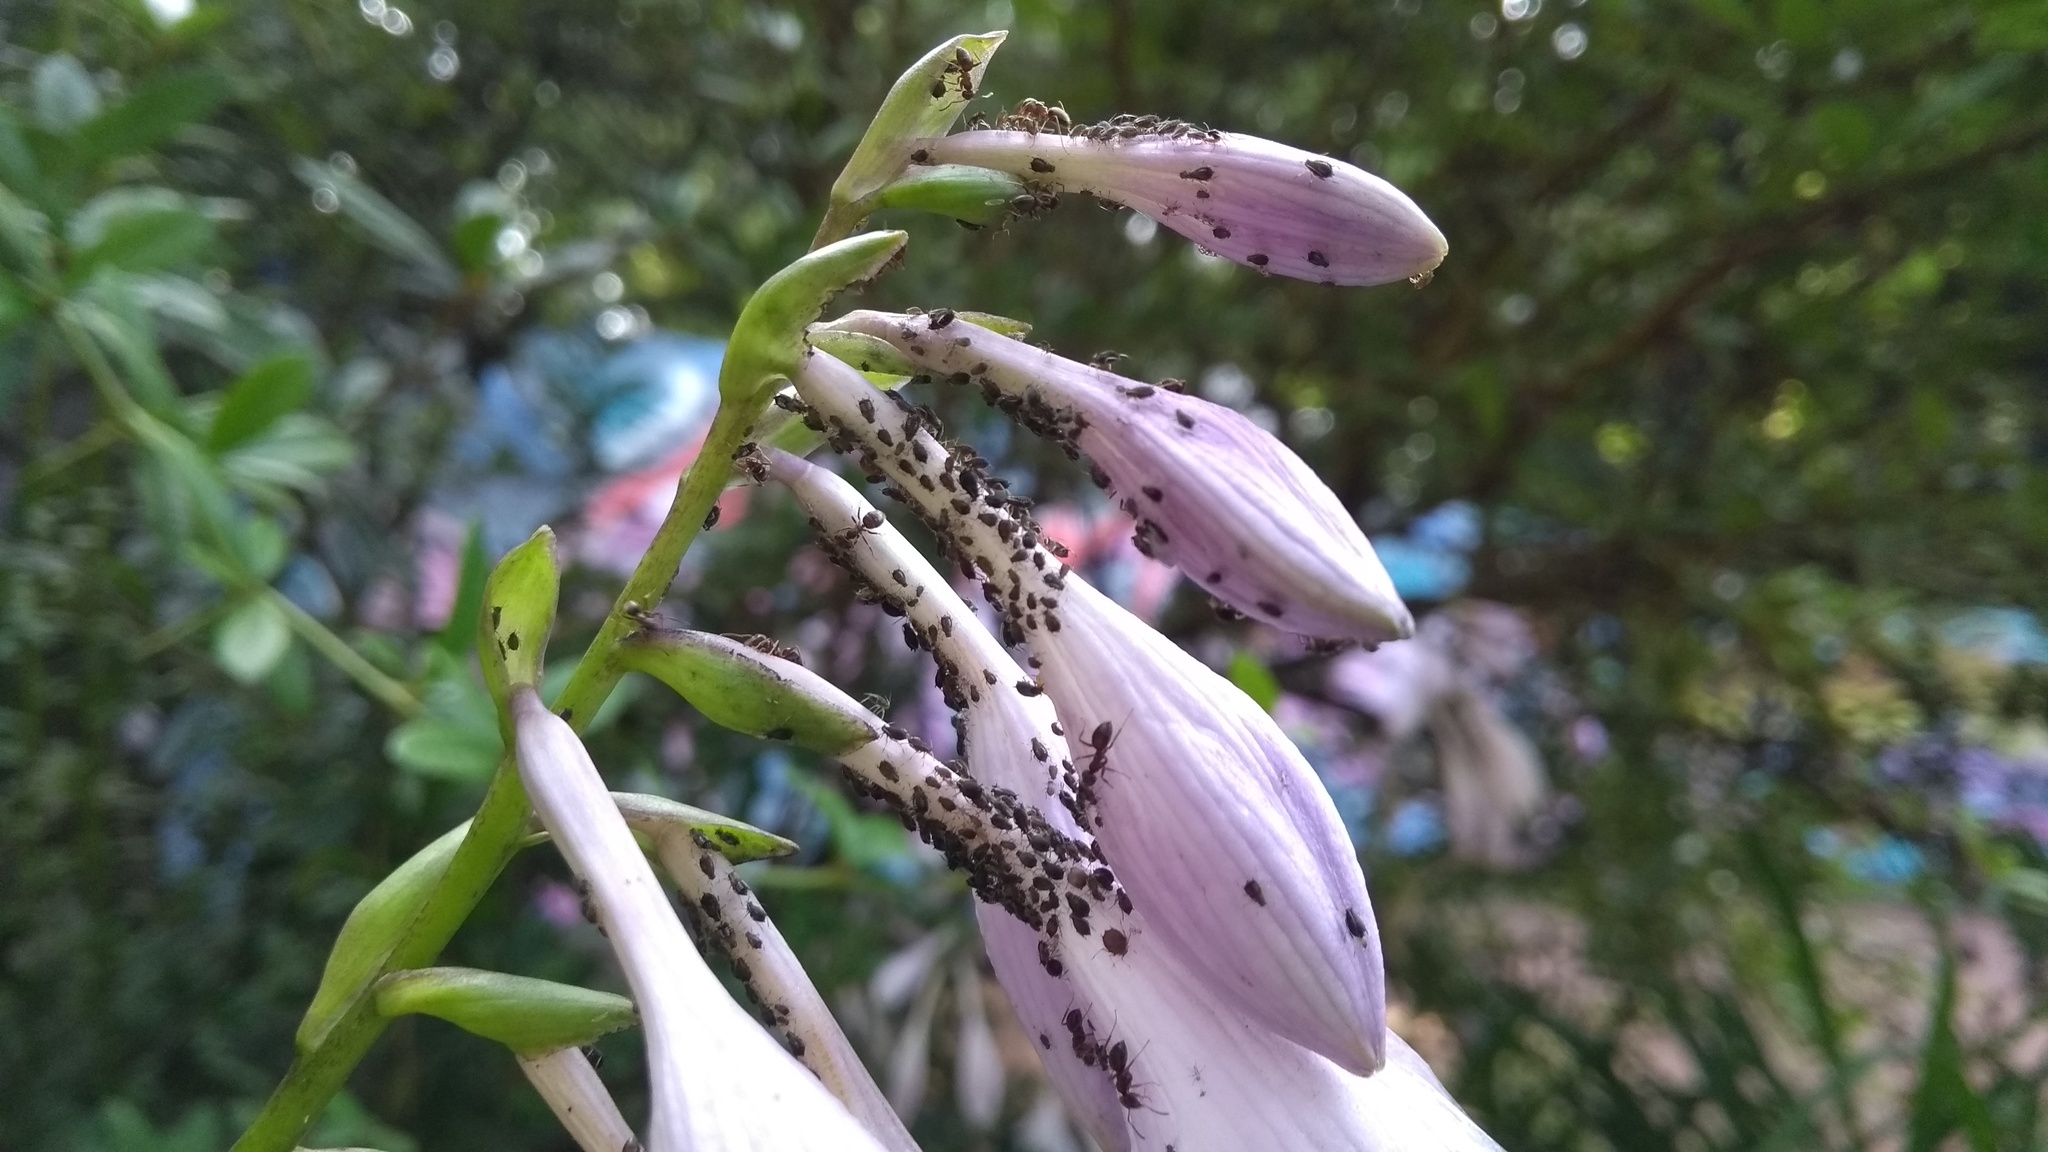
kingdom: Animalia
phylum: Arthropoda
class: Insecta
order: Hymenoptera
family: Formicidae
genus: Lasius
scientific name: Lasius
